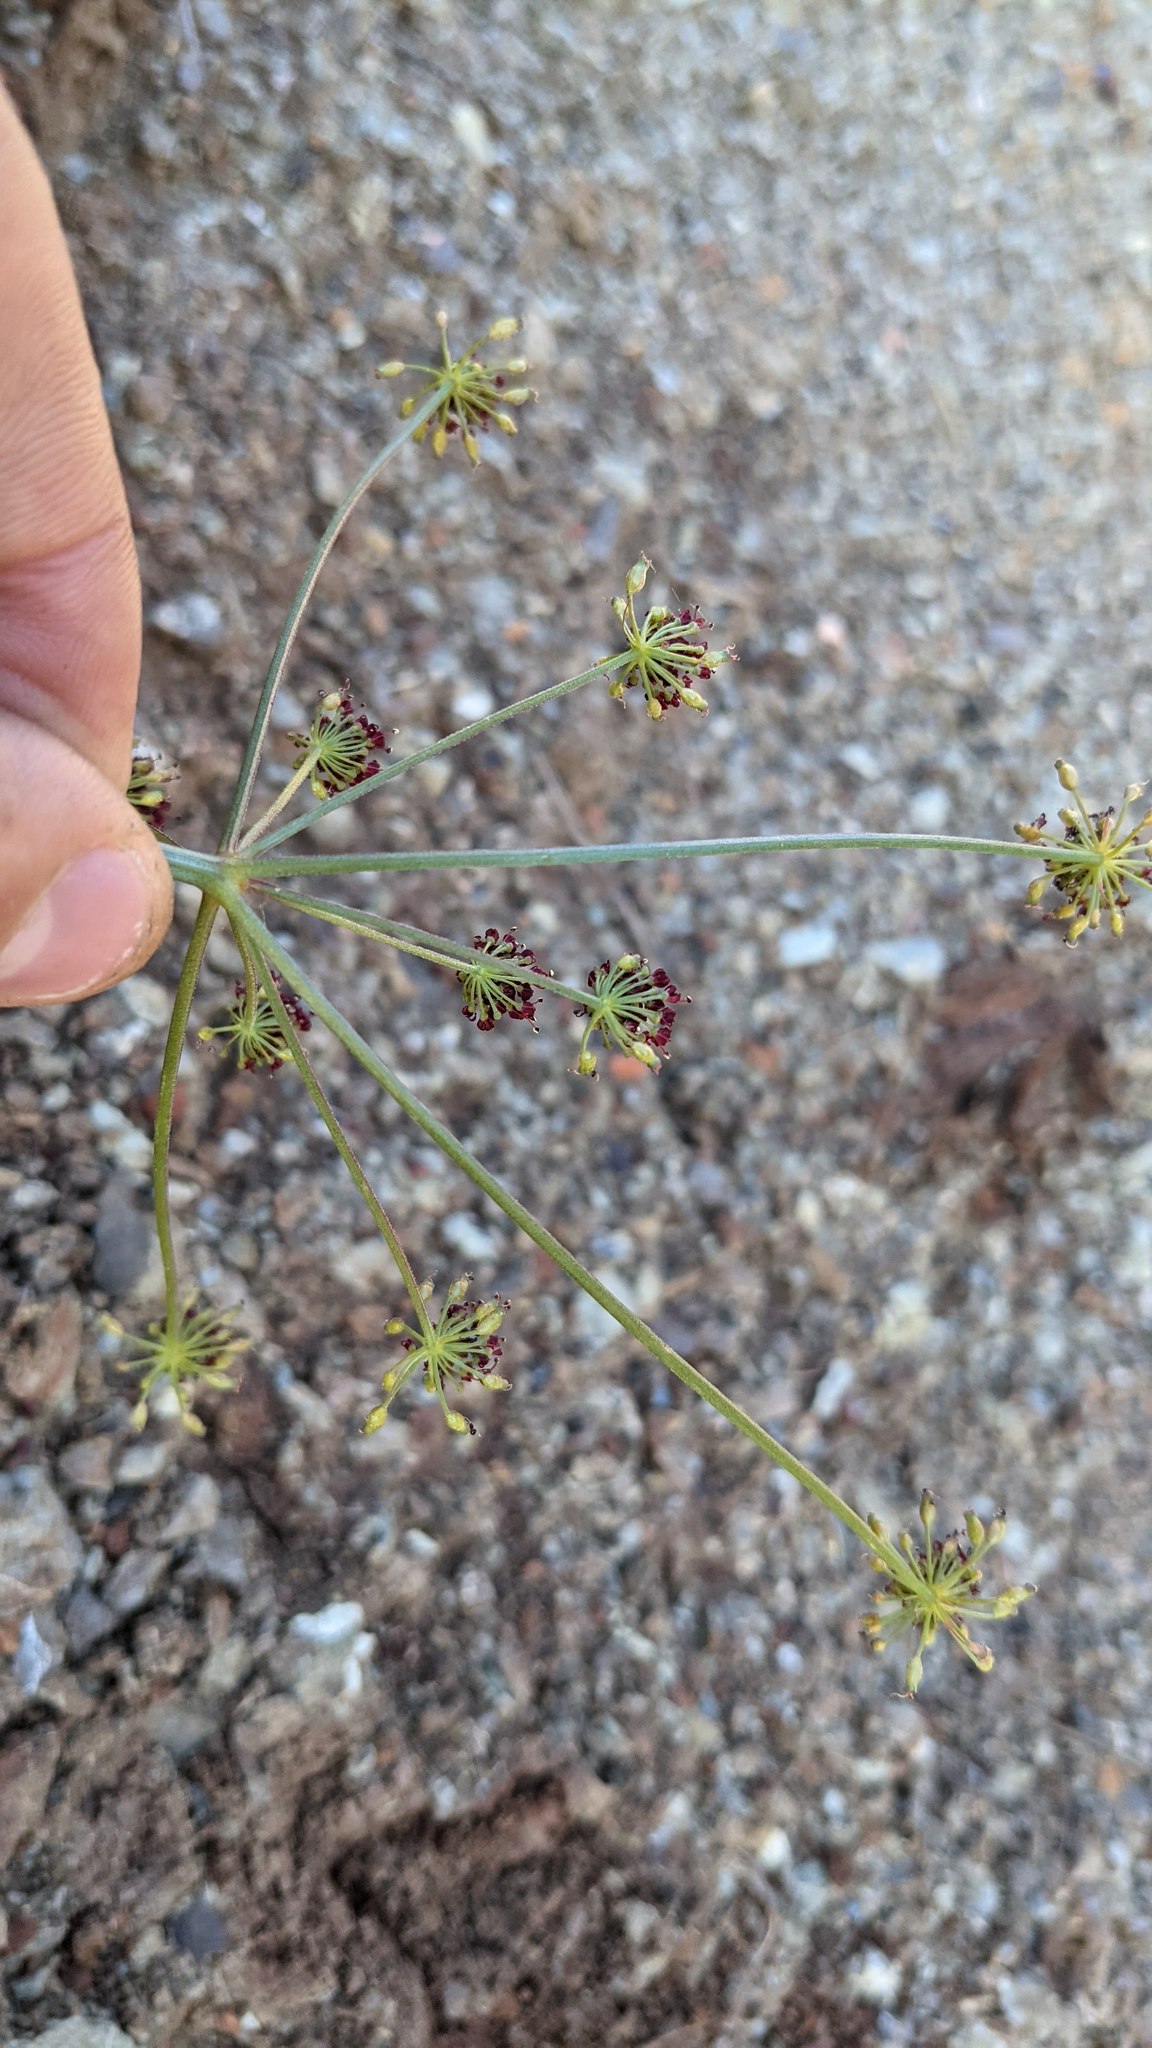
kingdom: Plantae
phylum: Tracheophyta
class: Magnoliopsida
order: Apiales
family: Apiaceae
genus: Lomatium
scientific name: Lomatium marginatum
